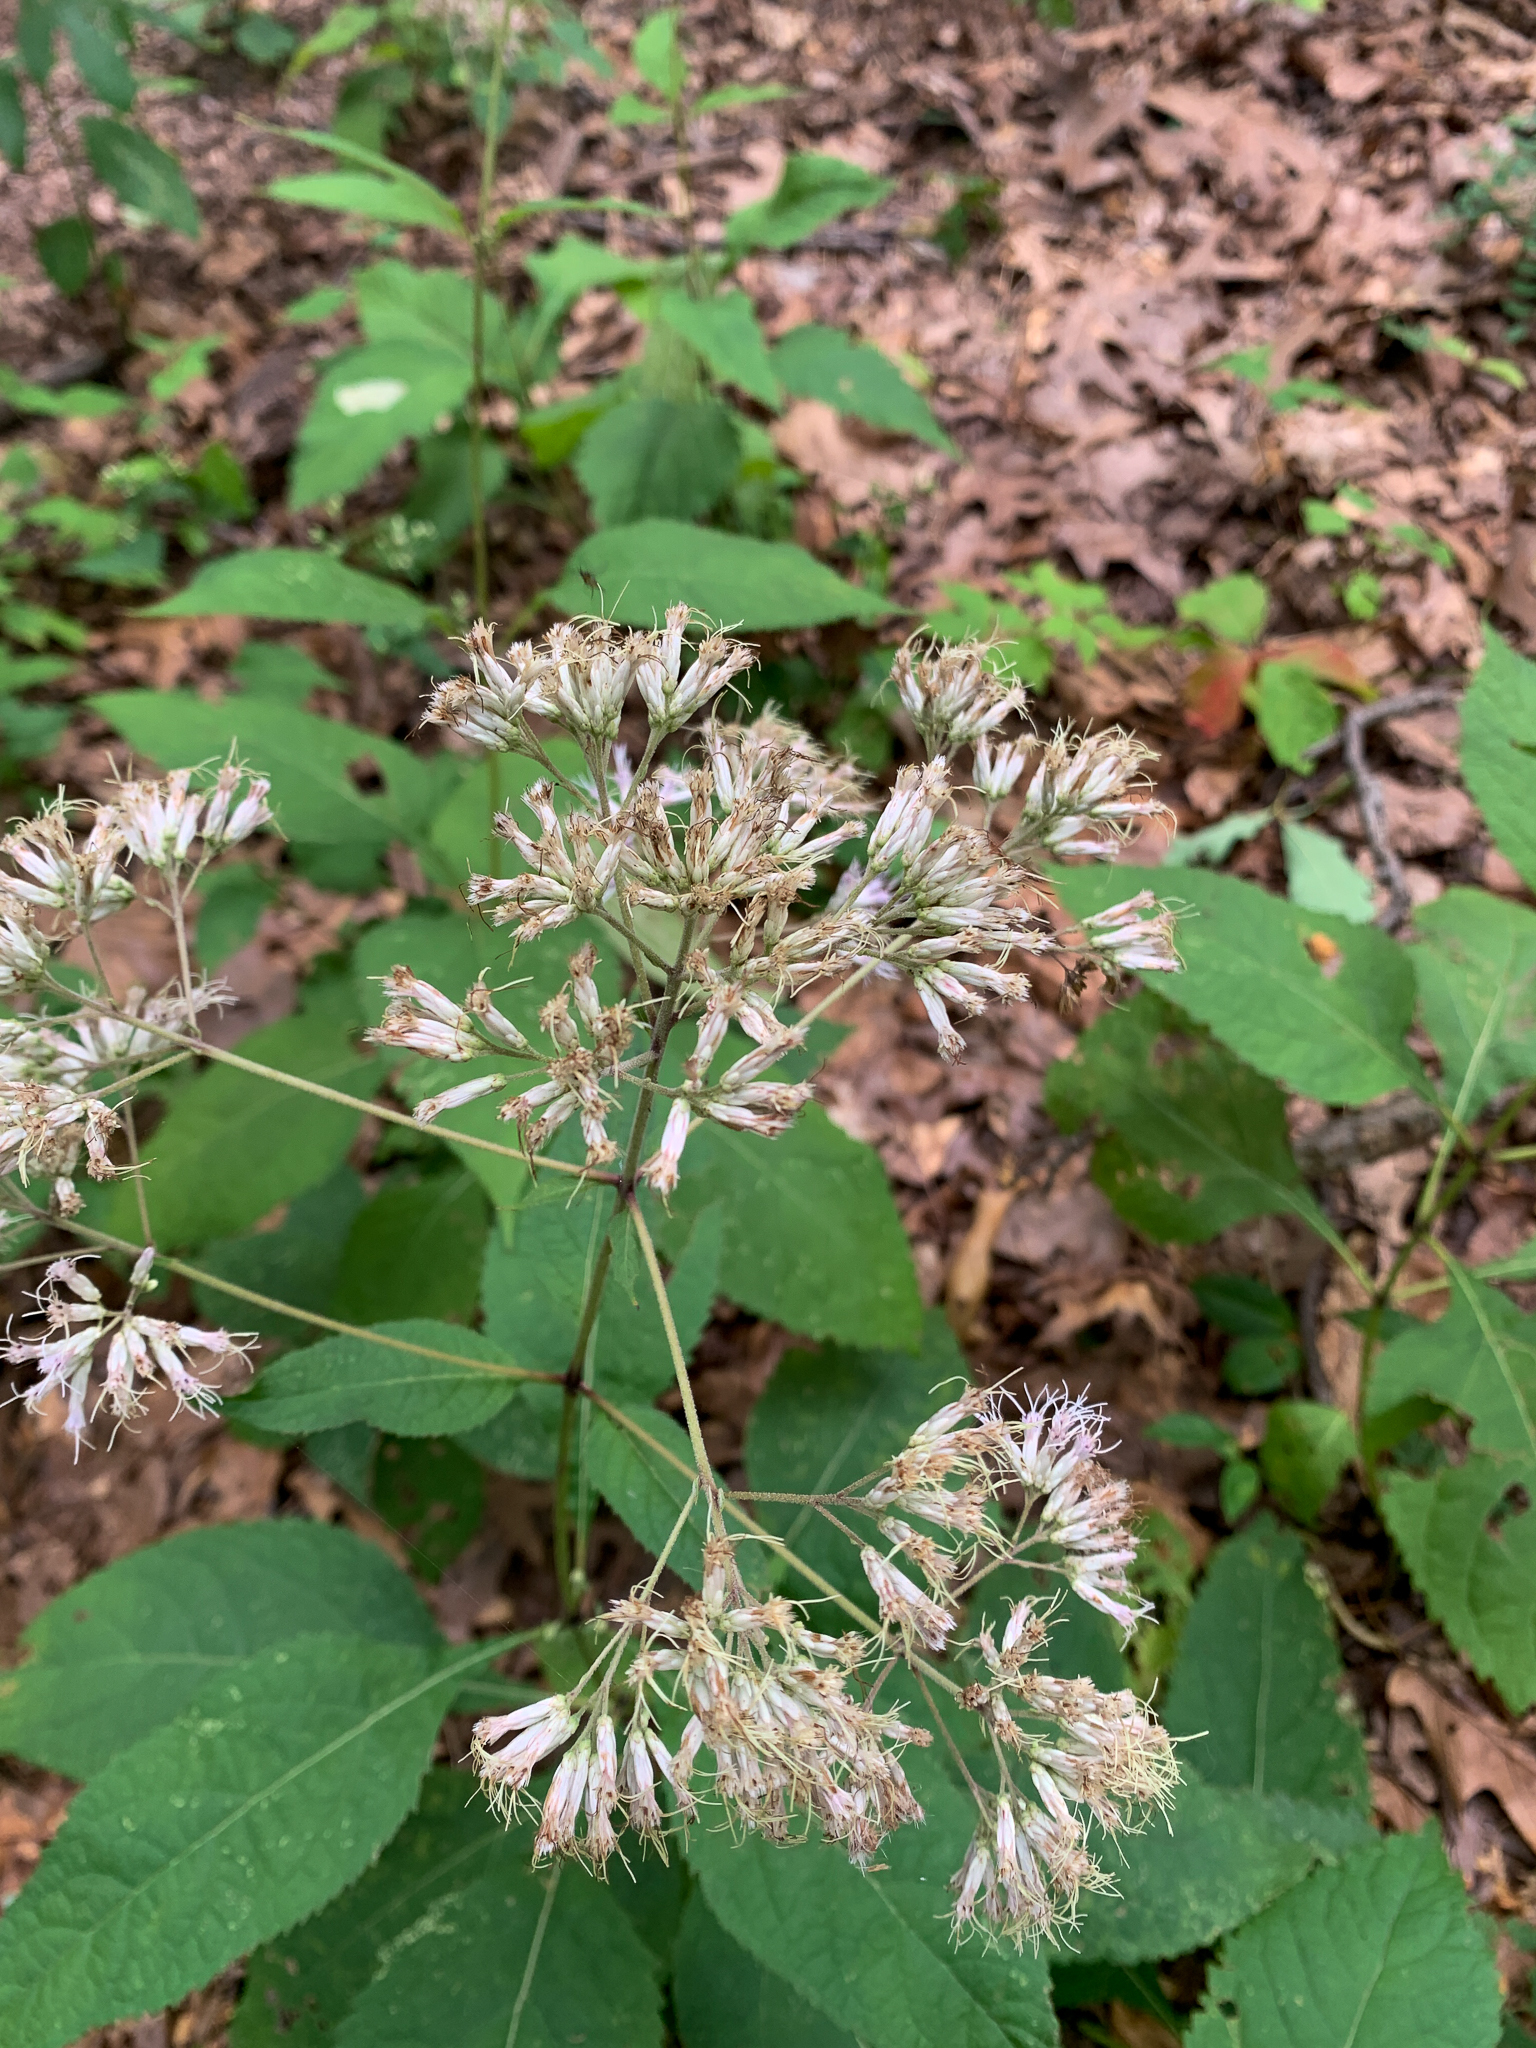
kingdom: Plantae
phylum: Tracheophyta
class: Magnoliopsida
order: Asterales
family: Asteraceae
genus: Eutrochium
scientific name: Eutrochium purpureum
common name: Gravelroot
